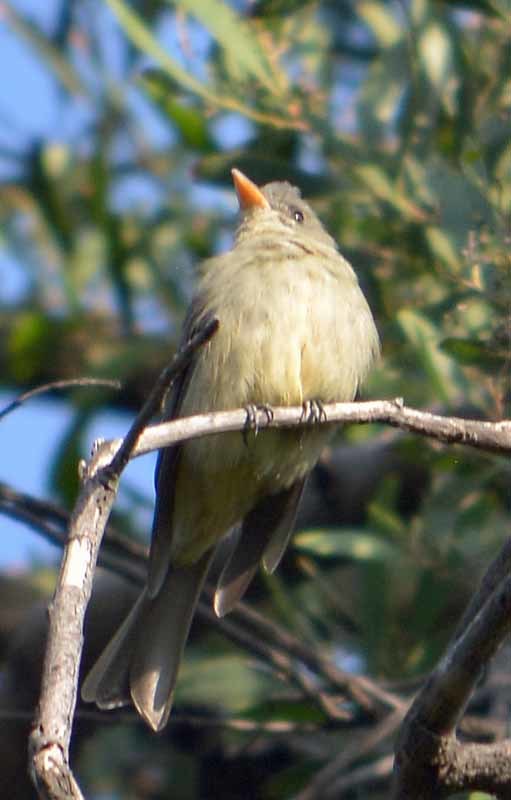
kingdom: Animalia
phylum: Chordata
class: Aves
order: Passeriformes
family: Tyrannidae
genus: Contopus
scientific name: Contopus pertinax
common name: Greater pewee
